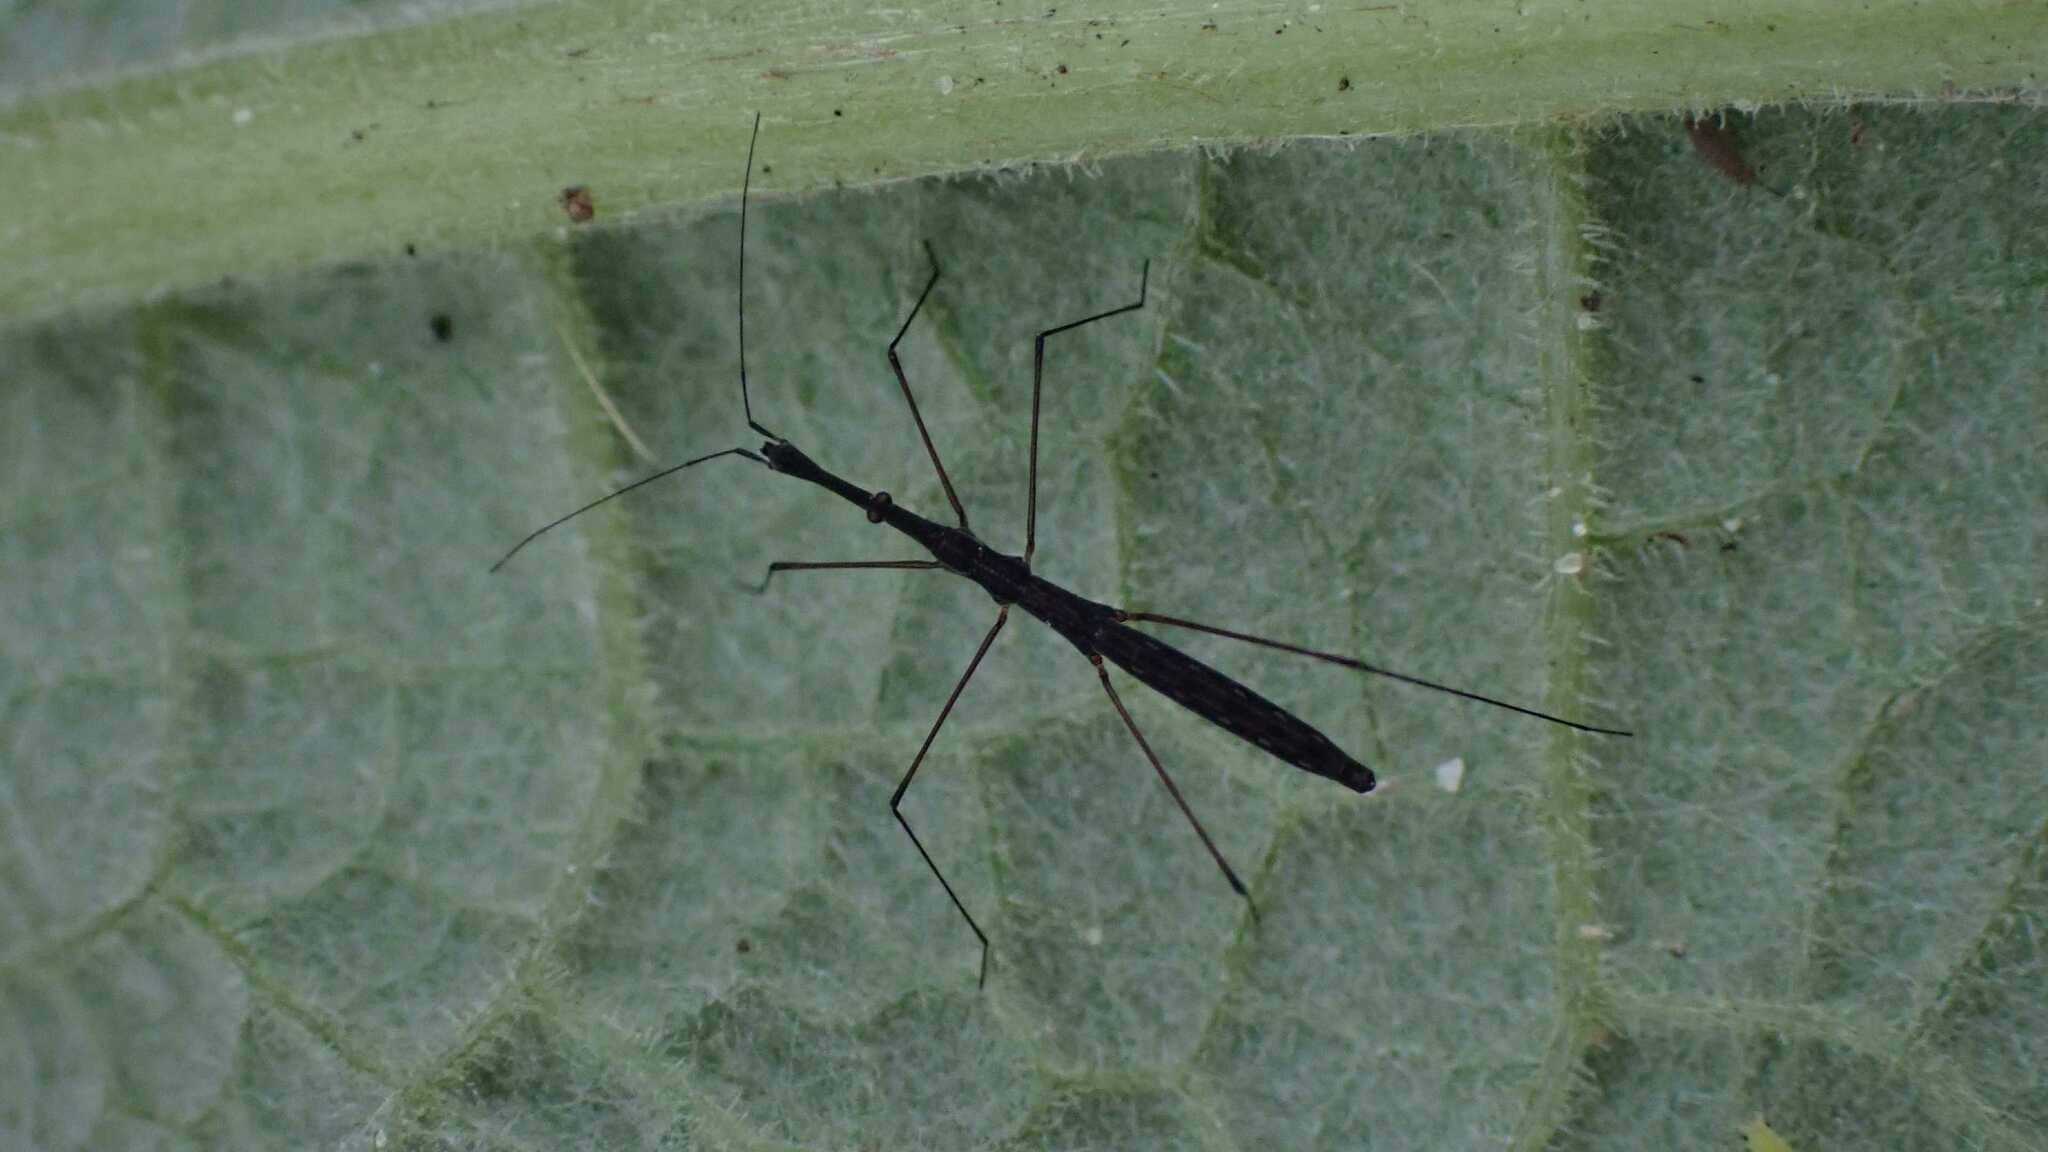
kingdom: Animalia
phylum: Arthropoda
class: Insecta
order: Hemiptera
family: Hydrometridae
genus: Hydrometra
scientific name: Hydrometra stagnorum
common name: Water measurer
